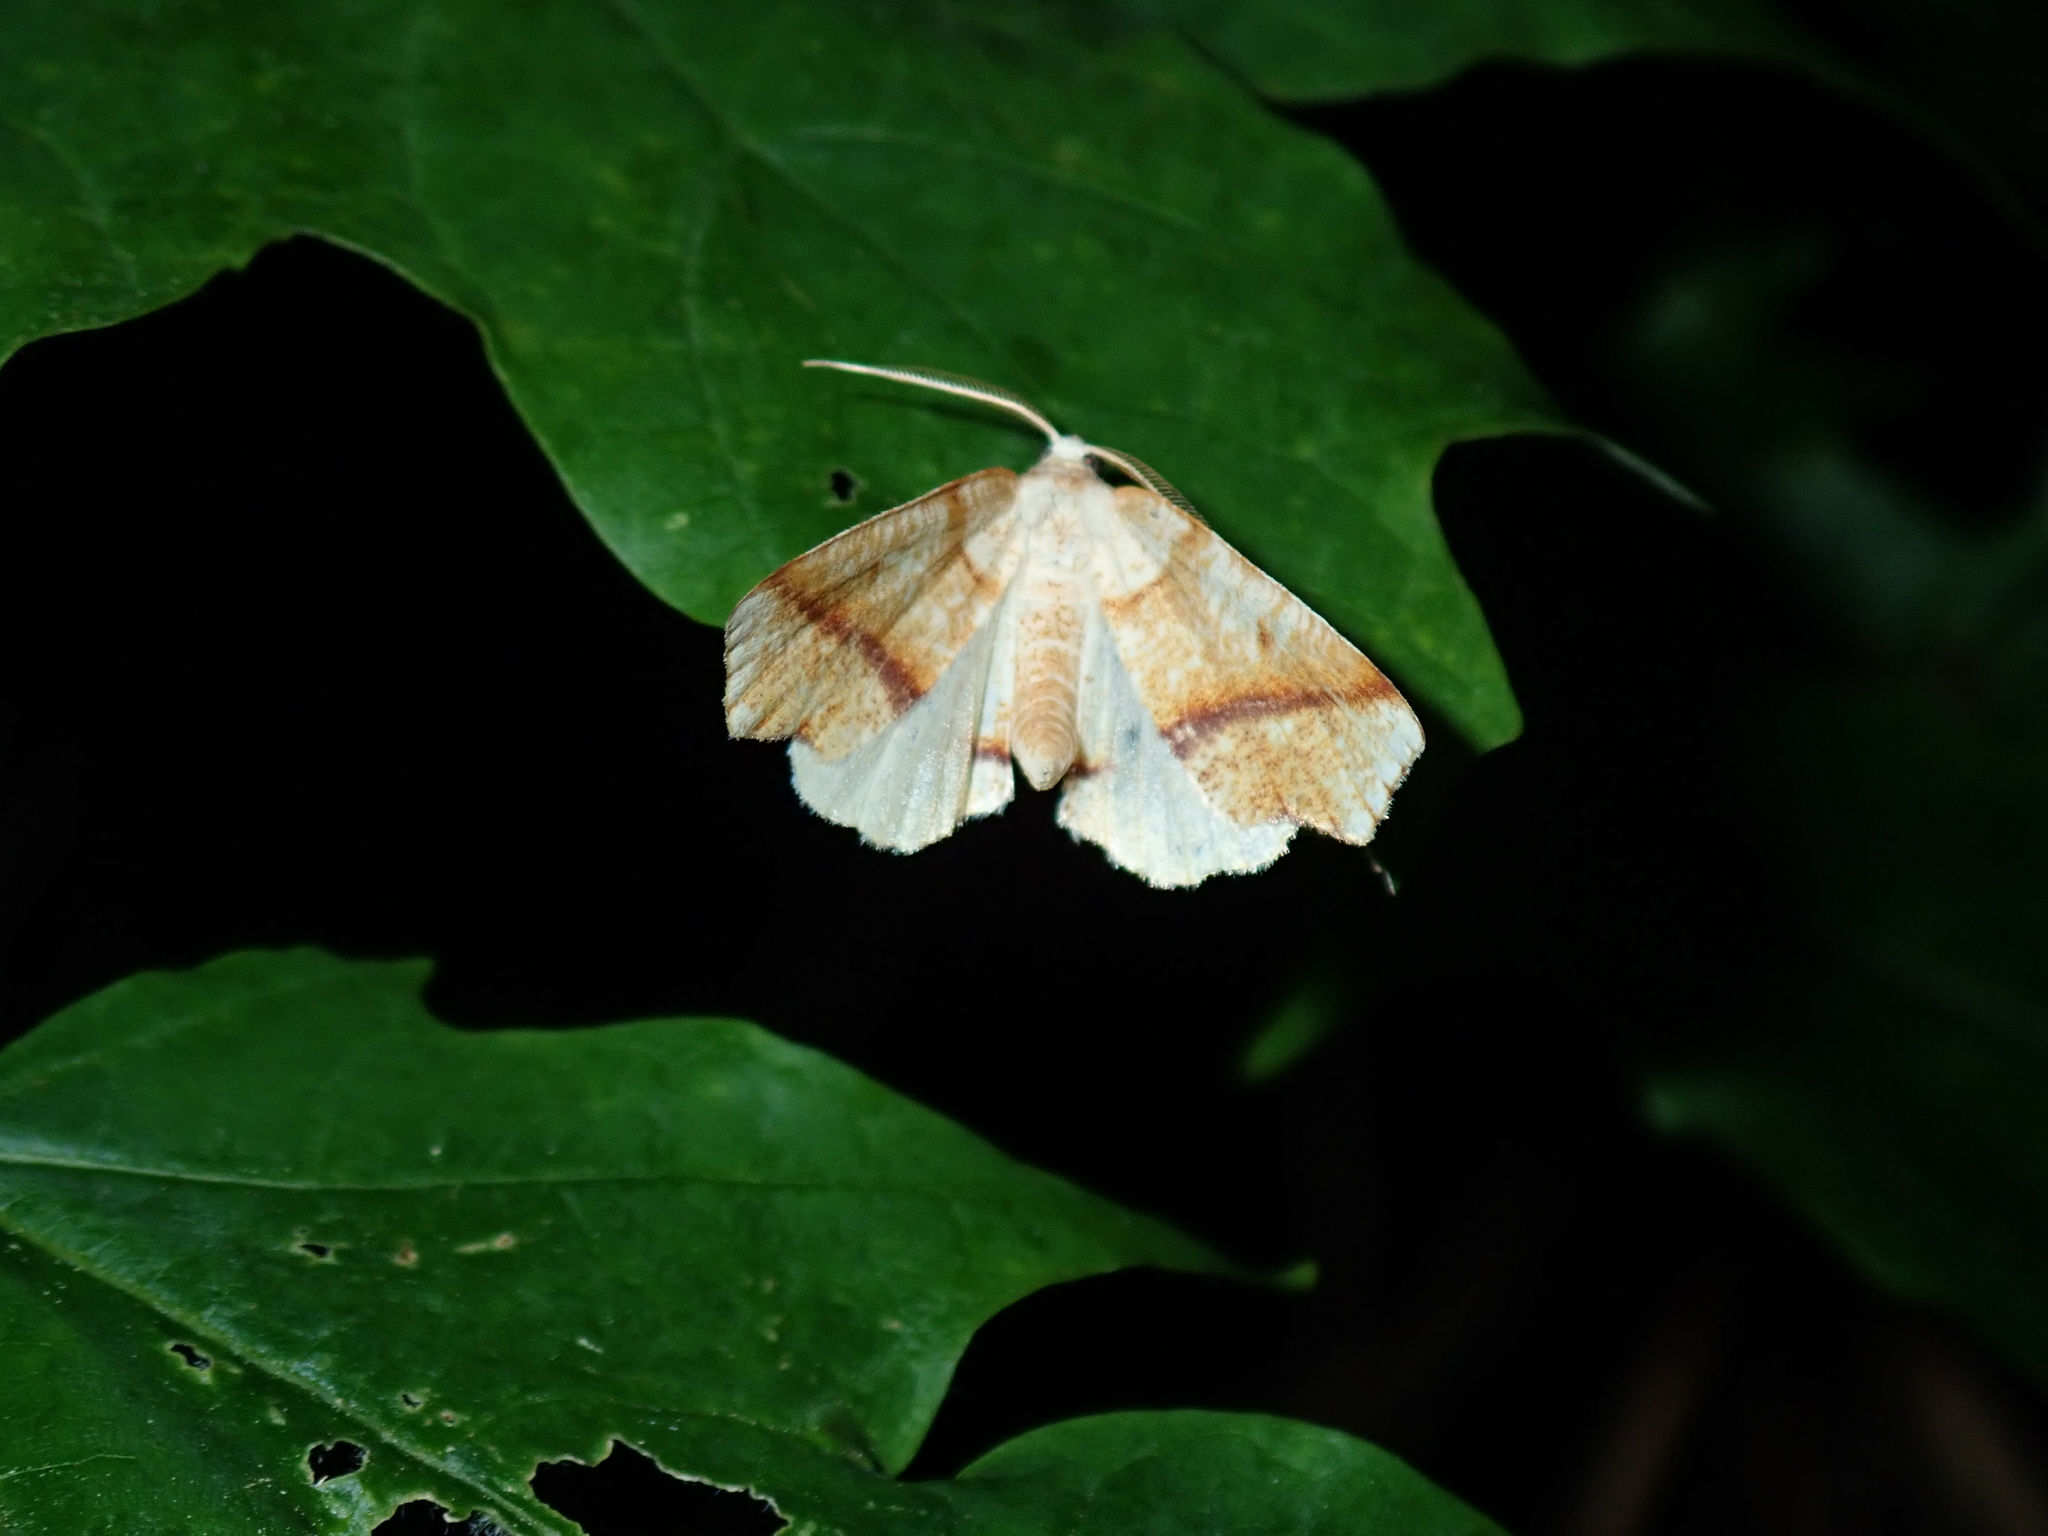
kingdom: Animalia
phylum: Arthropoda
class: Insecta
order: Lepidoptera
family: Geometridae
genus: Plagodis
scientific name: Plagodis alcoolaria
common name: Hollow-spotted plagodis
